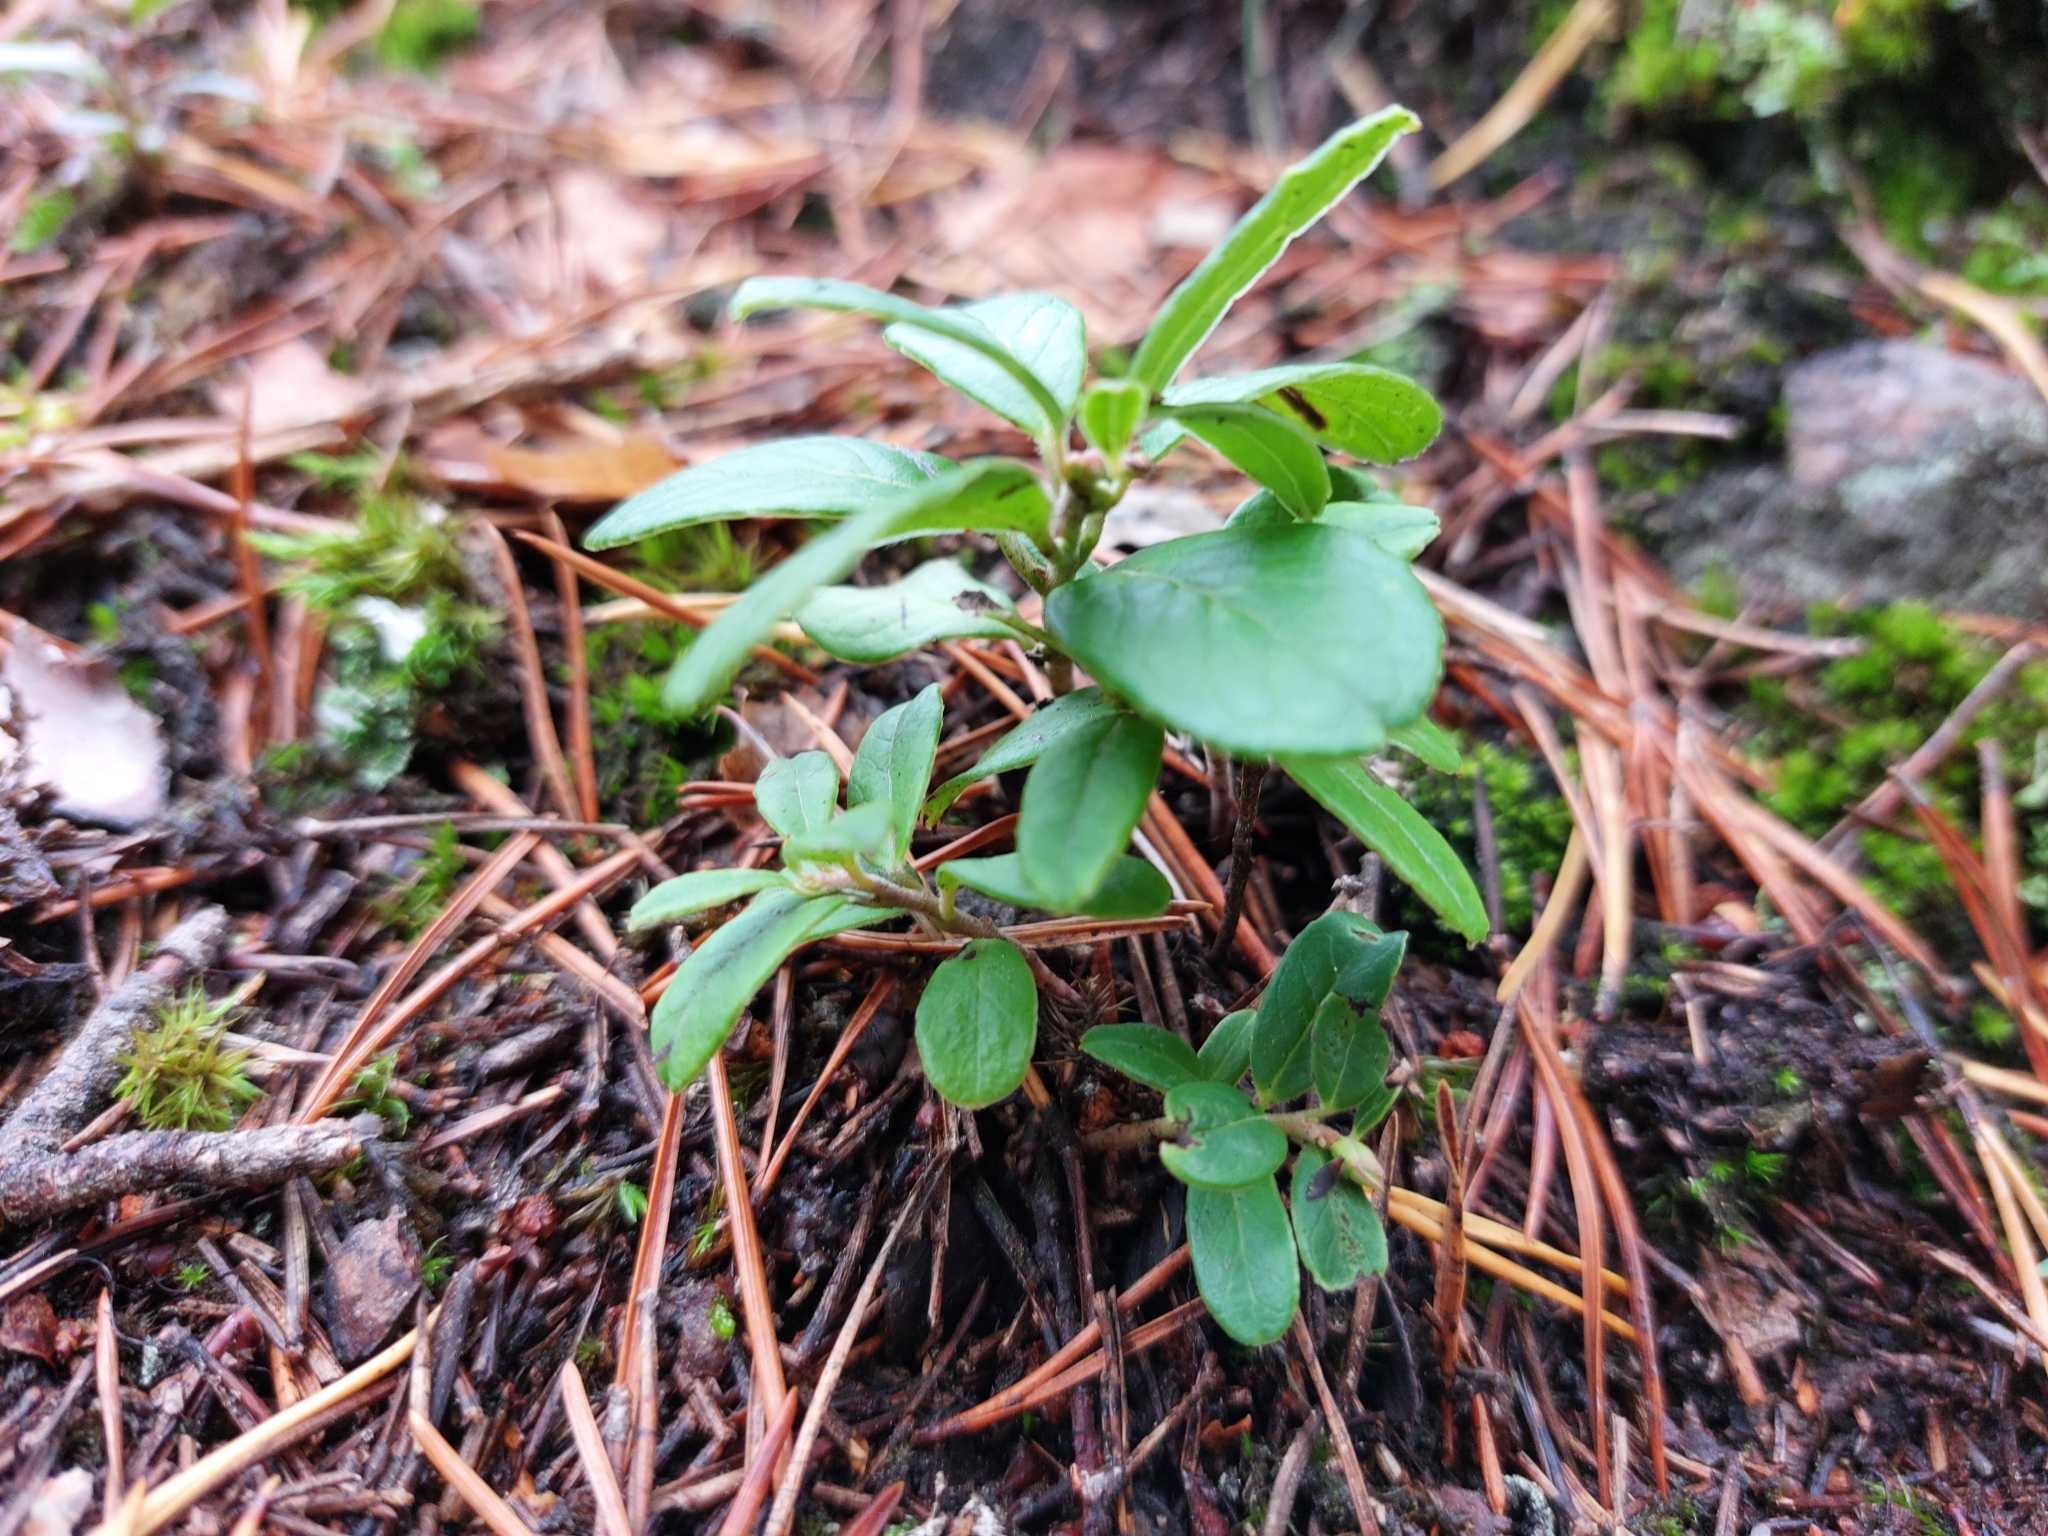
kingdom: Plantae
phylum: Tracheophyta
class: Magnoliopsida
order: Ericales
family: Ericaceae
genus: Vaccinium
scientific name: Vaccinium vitis-idaea
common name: Cowberry
